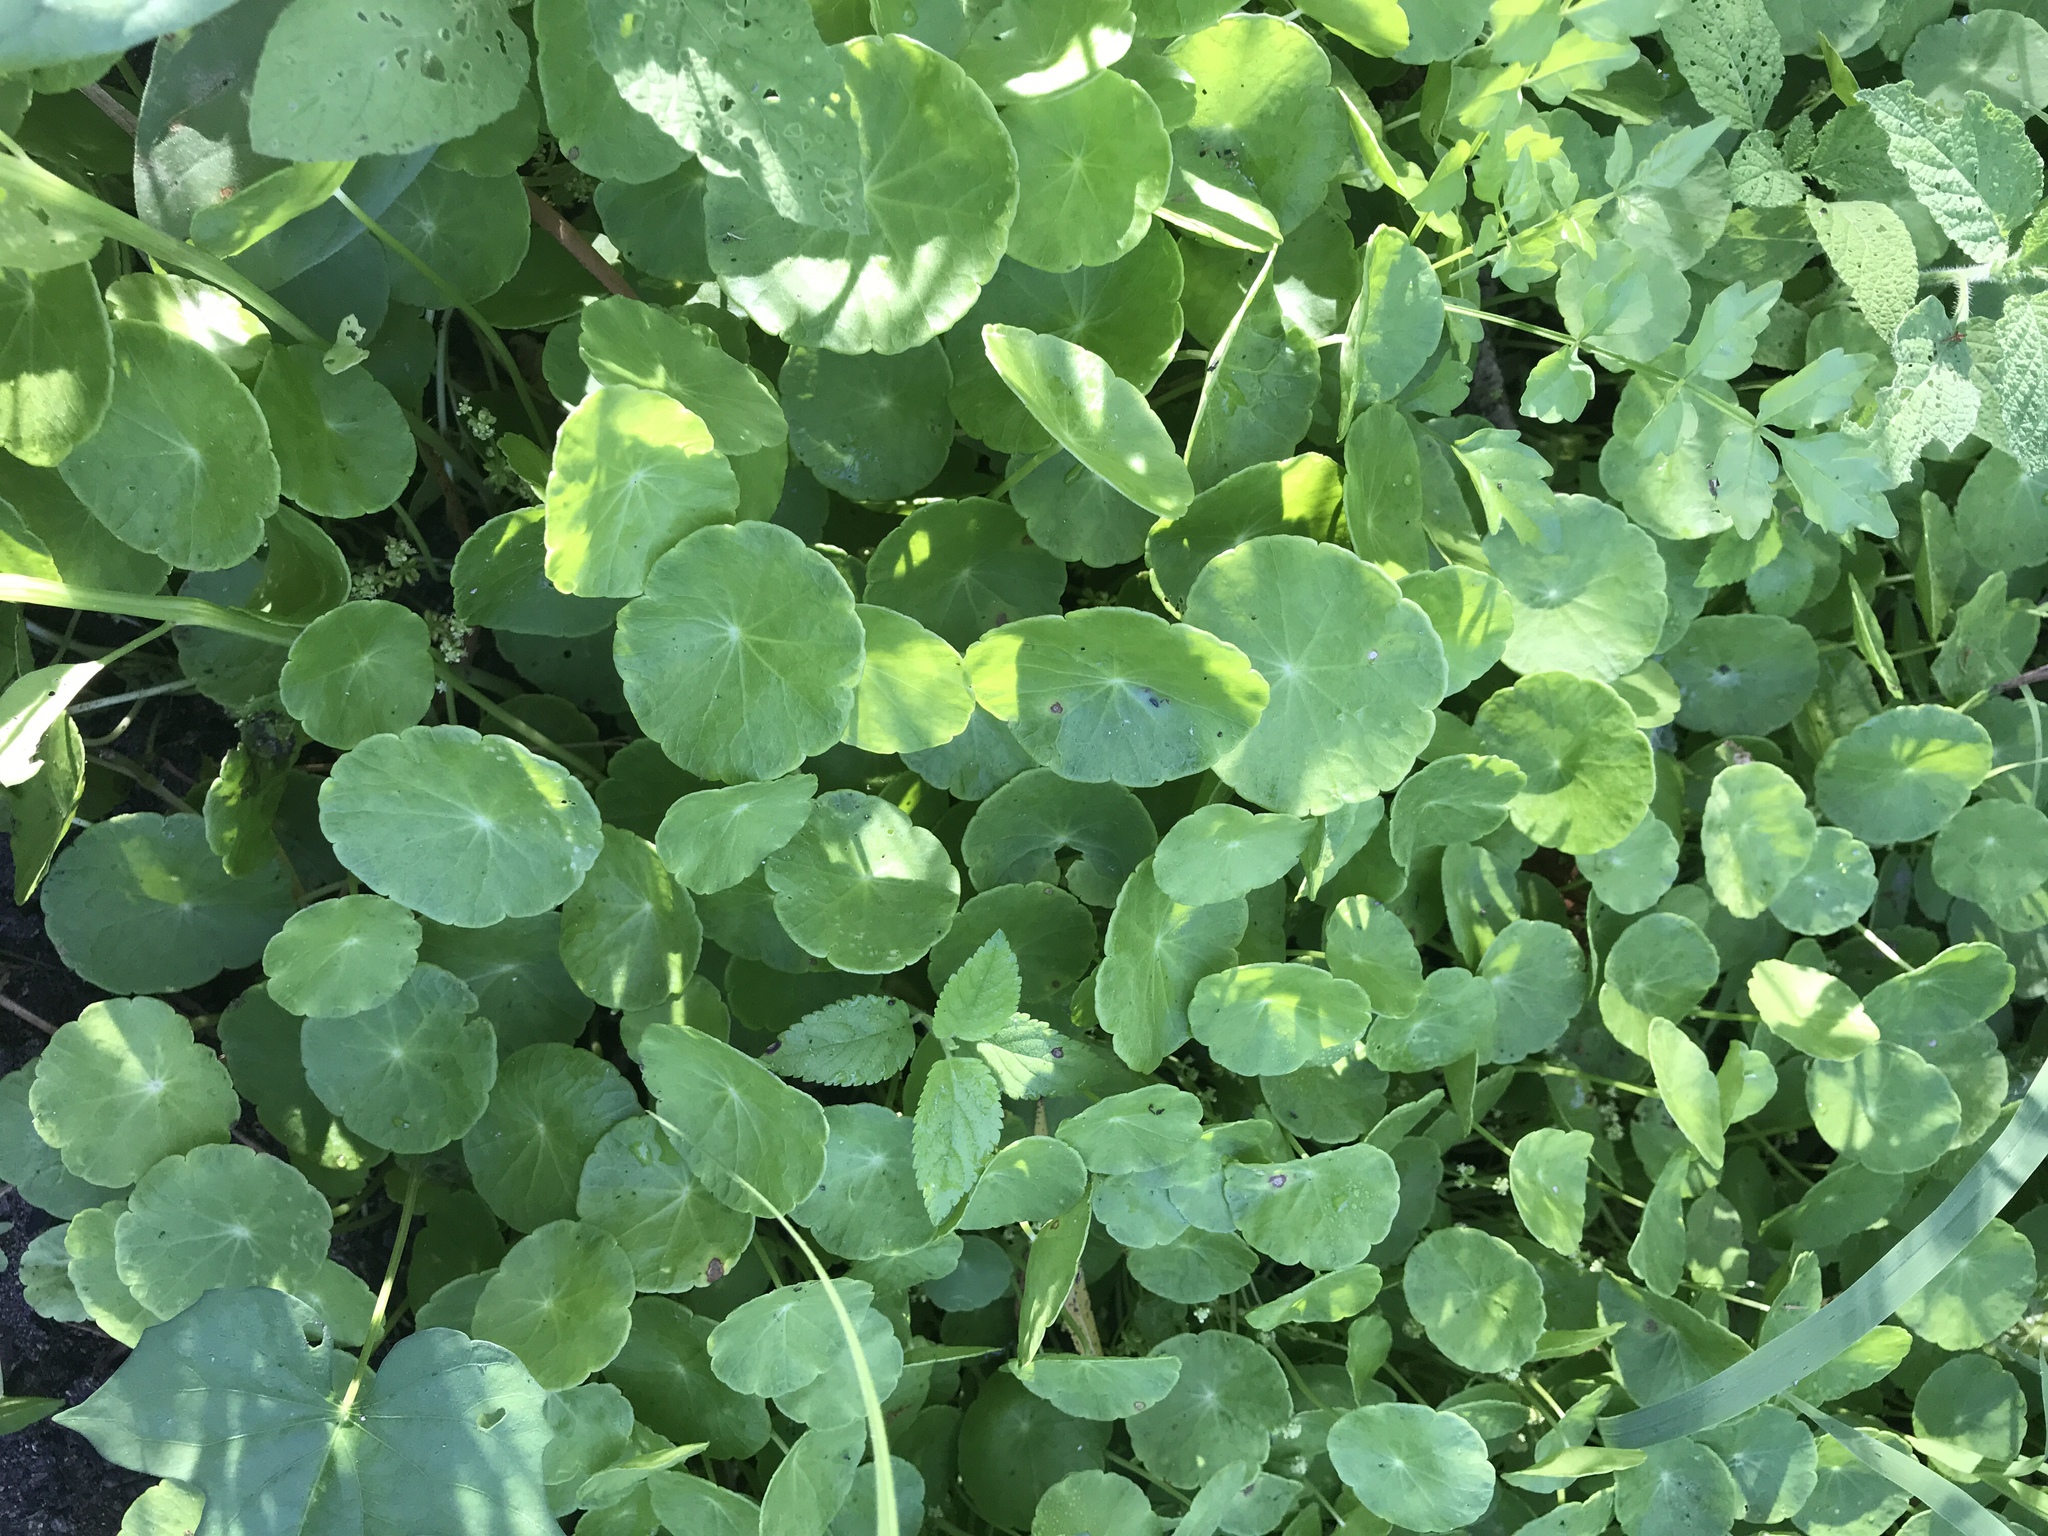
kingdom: Plantae
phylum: Tracheophyta
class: Magnoliopsida
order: Apiales
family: Araliaceae
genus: Hydrocotyle
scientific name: Hydrocotyle verticillata
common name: Whorled marshpennywort
